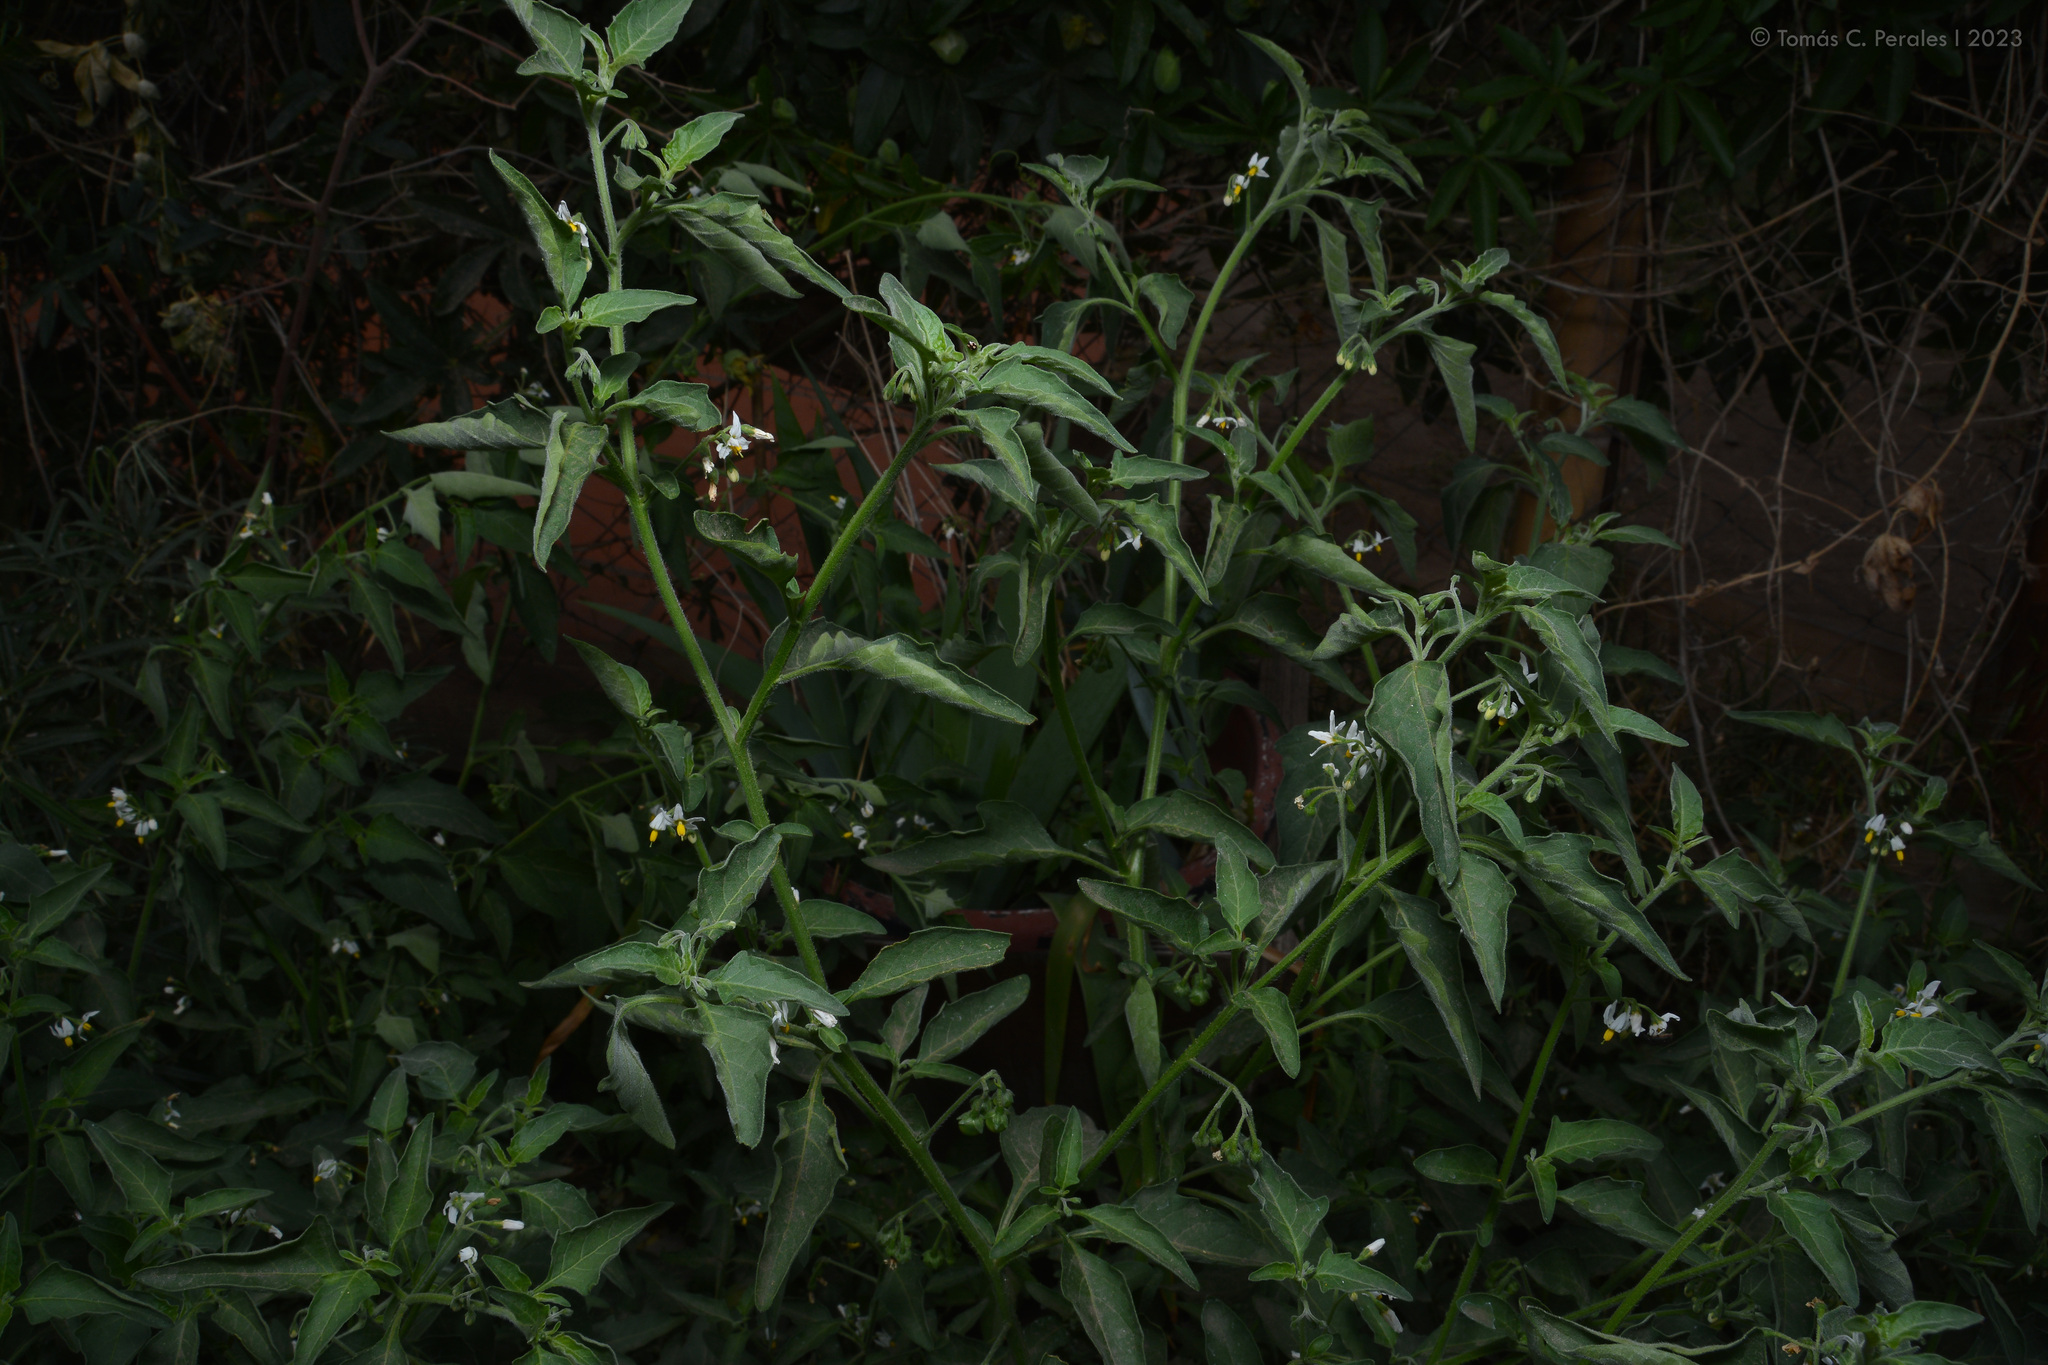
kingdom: Plantae
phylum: Tracheophyta
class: Magnoliopsida
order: Solanales
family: Solanaceae
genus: Solanum
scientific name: Solanum chenopodioides
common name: Tall nightshade
